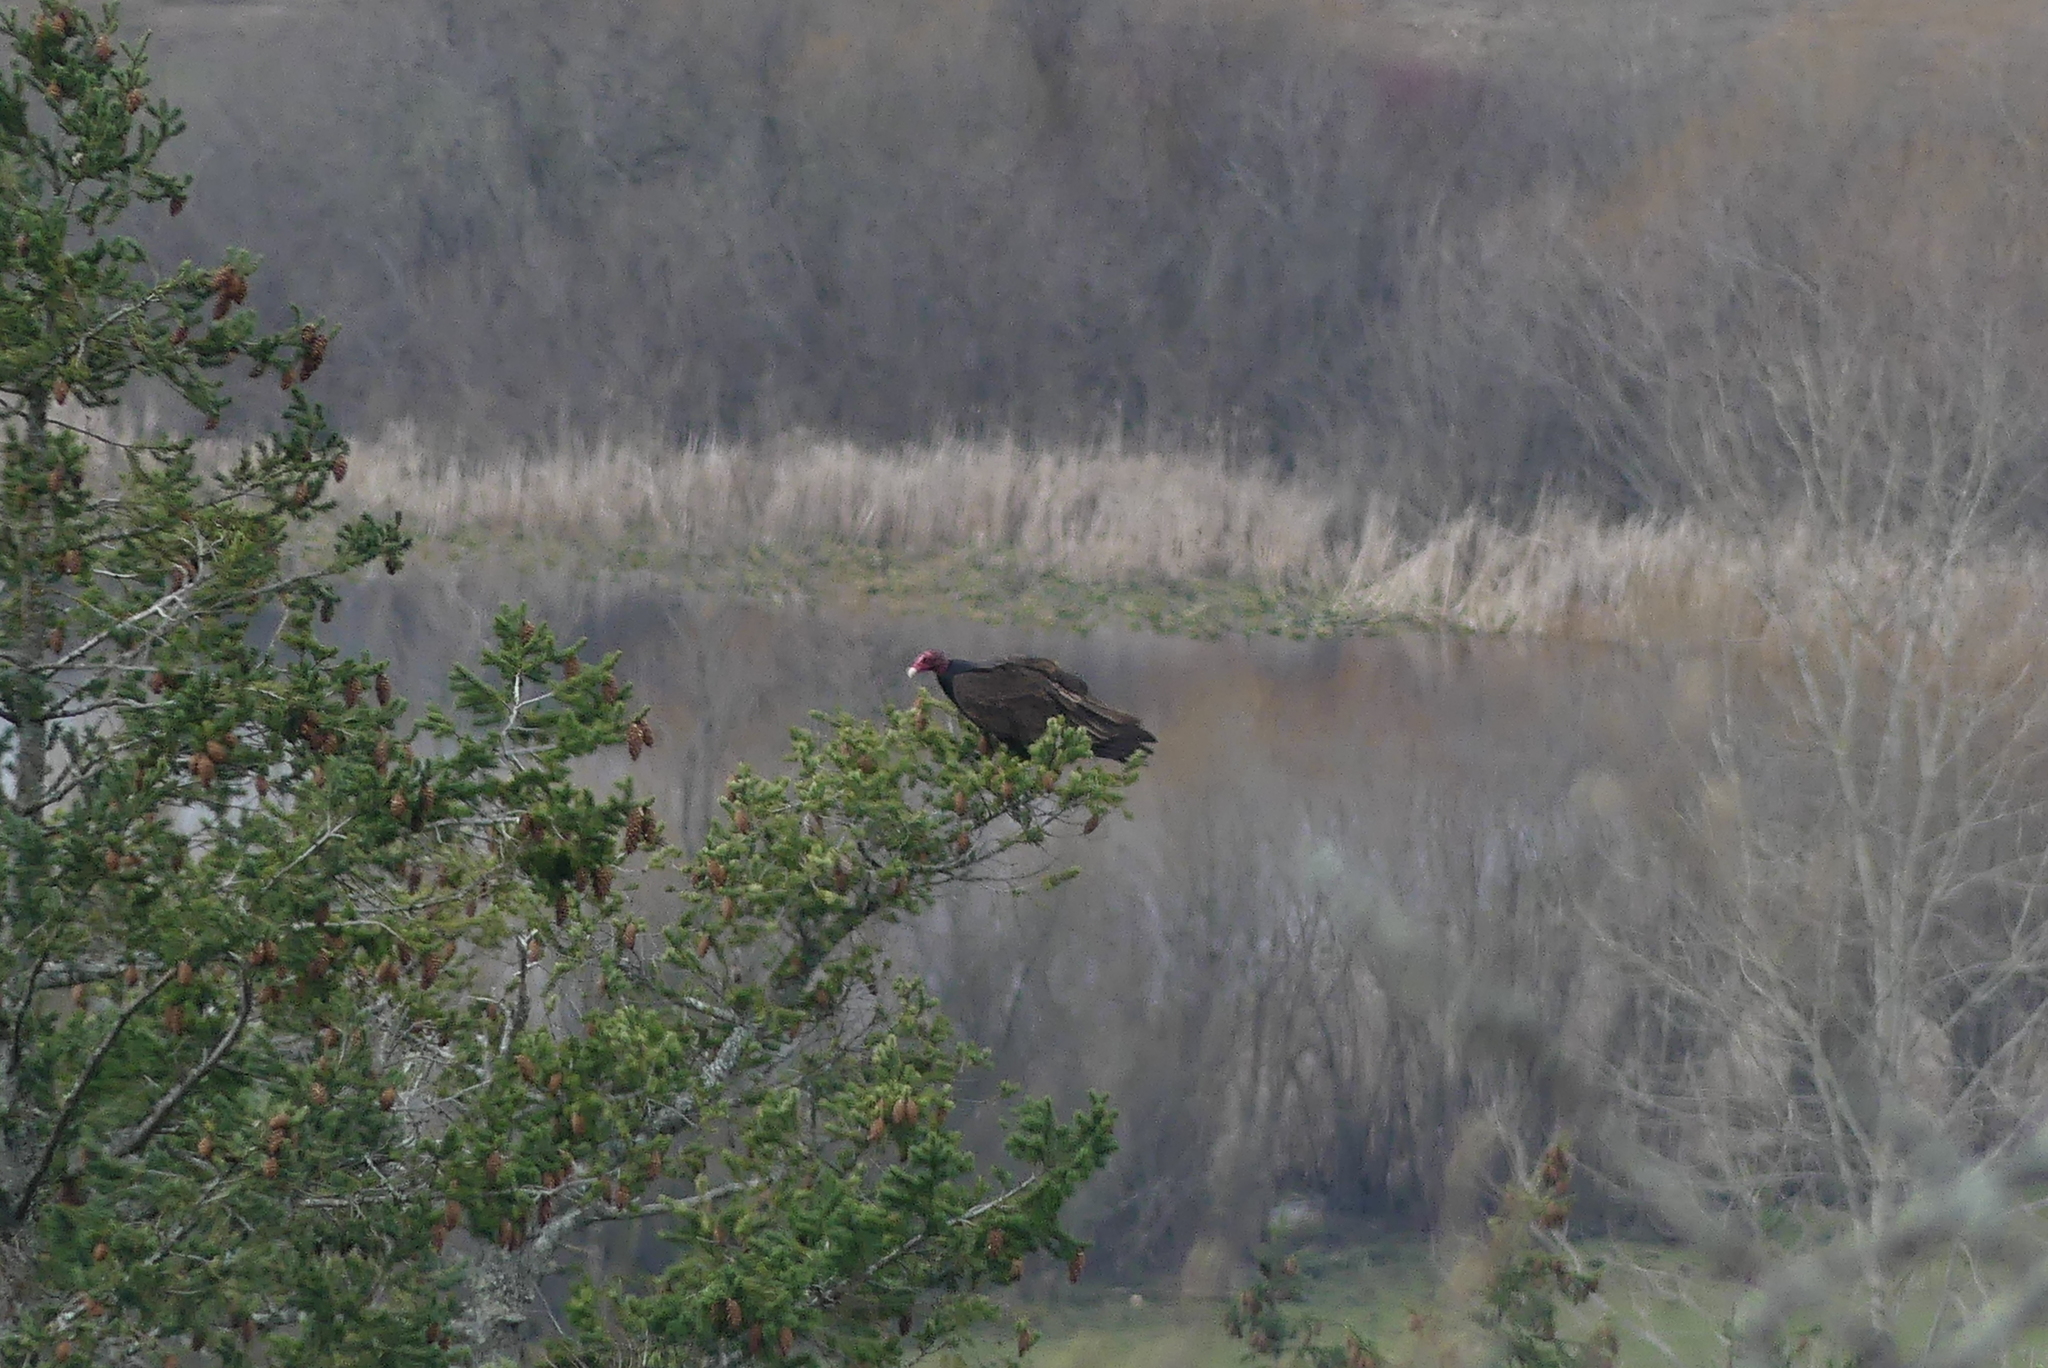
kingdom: Animalia
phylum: Chordata
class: Aves
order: Accipitriformes
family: Cathartidae
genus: Cathartes
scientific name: Cathartes aura
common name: Turkey vulture
